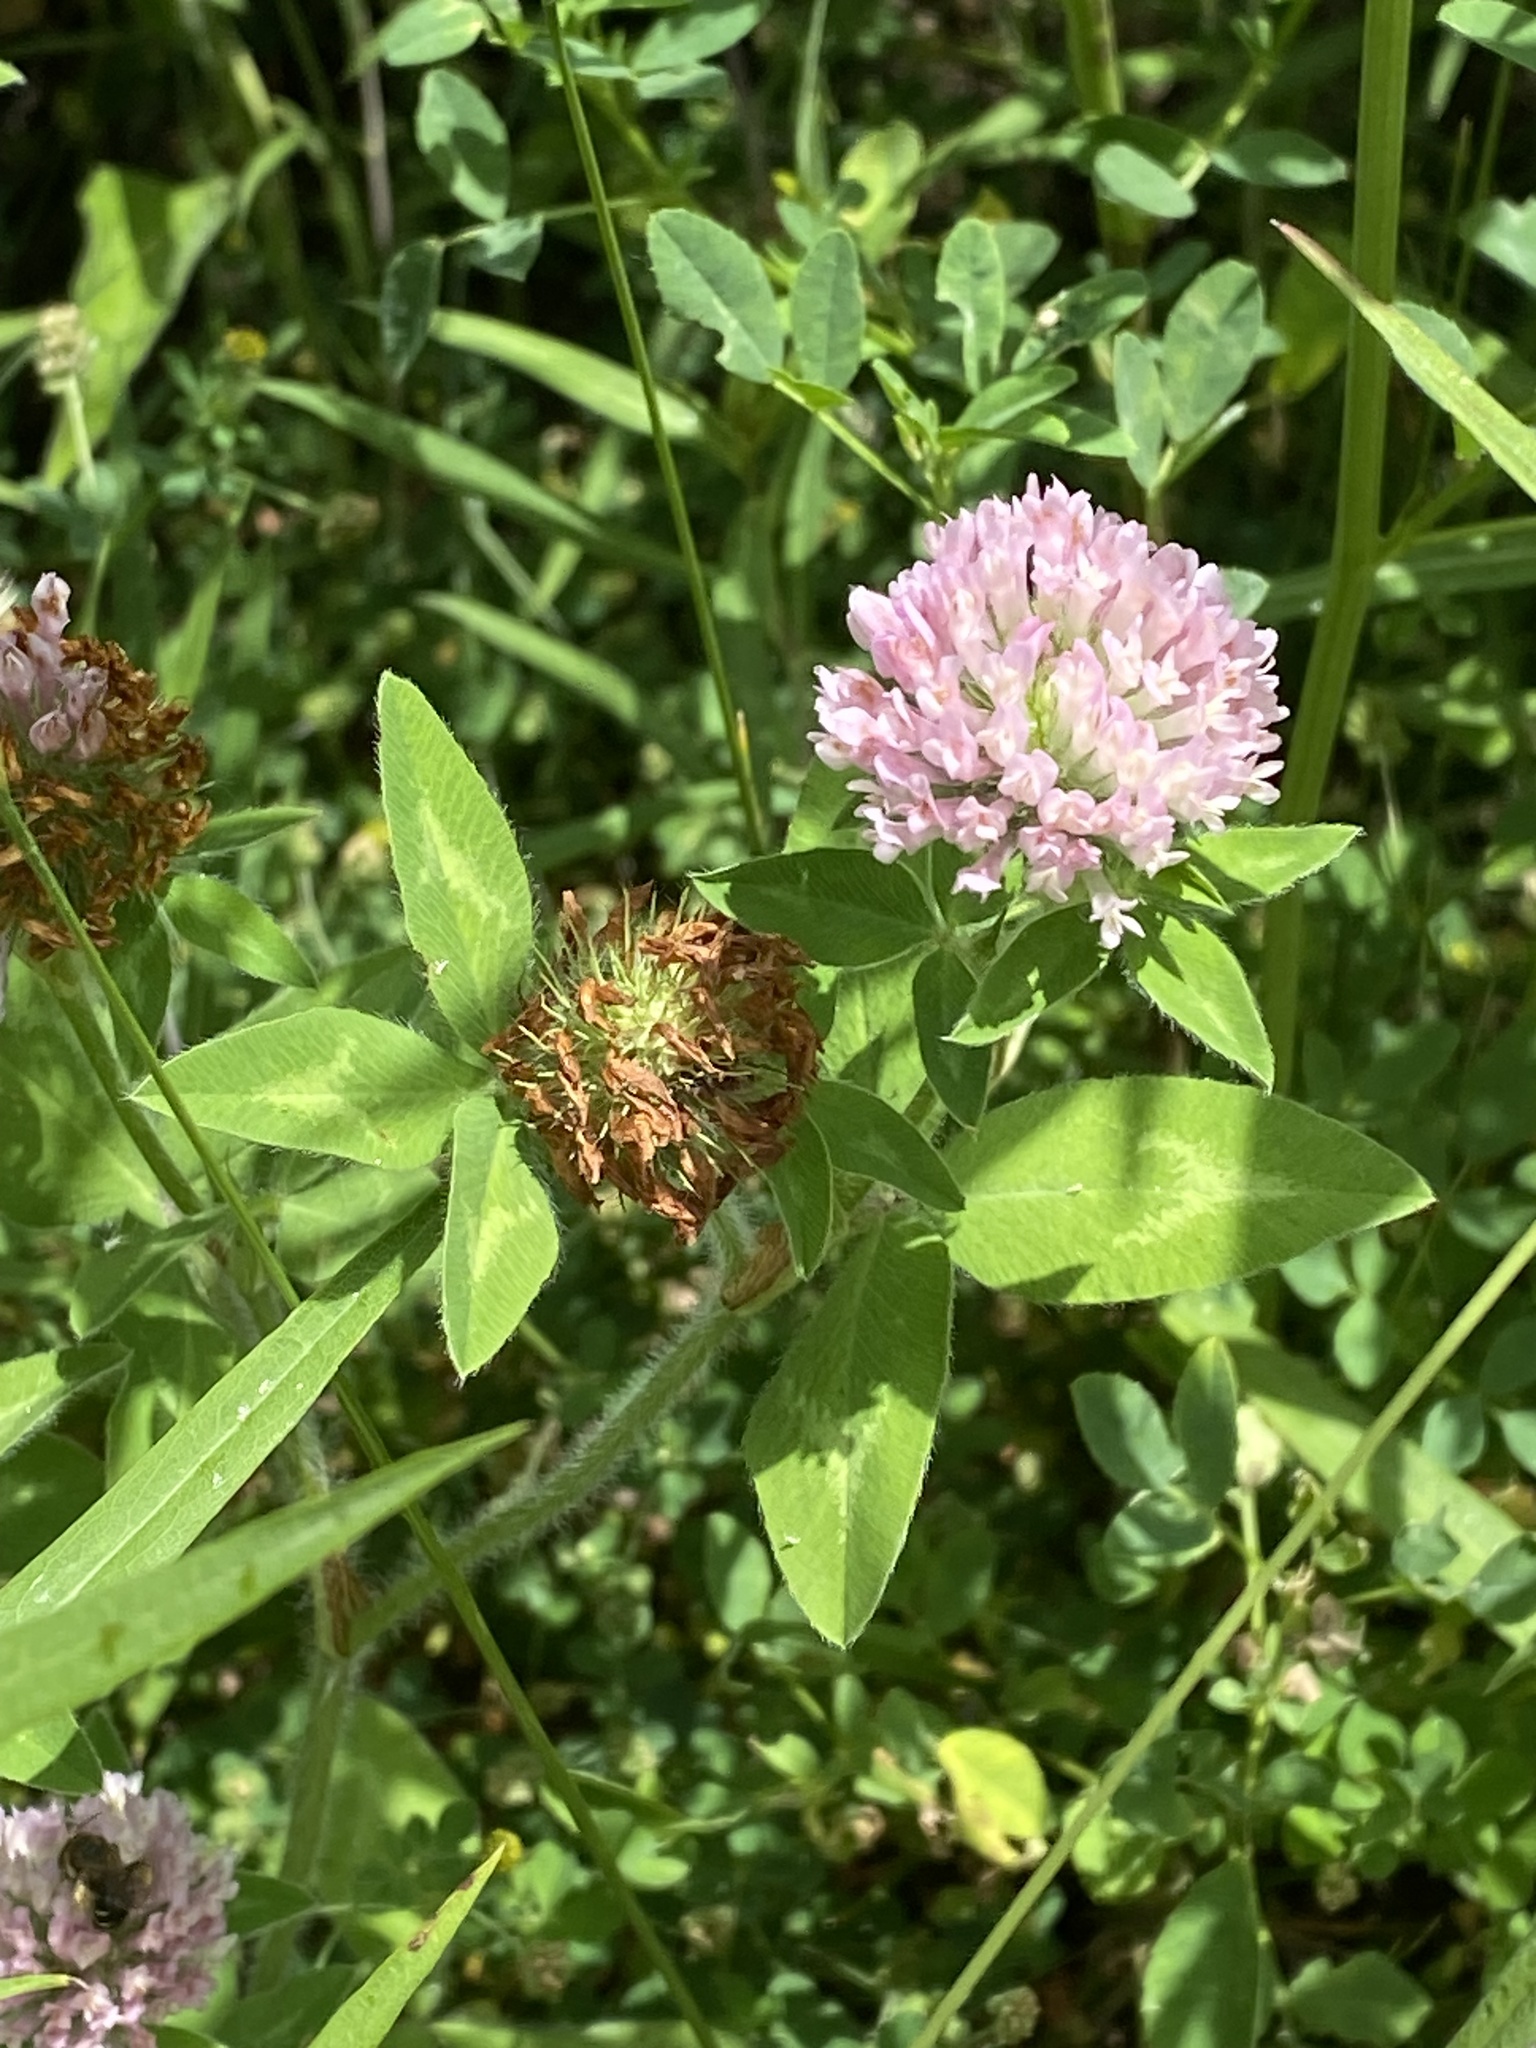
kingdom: Plantae
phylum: Tracheophyta
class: Magnoliopsida
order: Fabales
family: Fabaceae
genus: Trifolium
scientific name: Trifolium pratense
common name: Red clover
